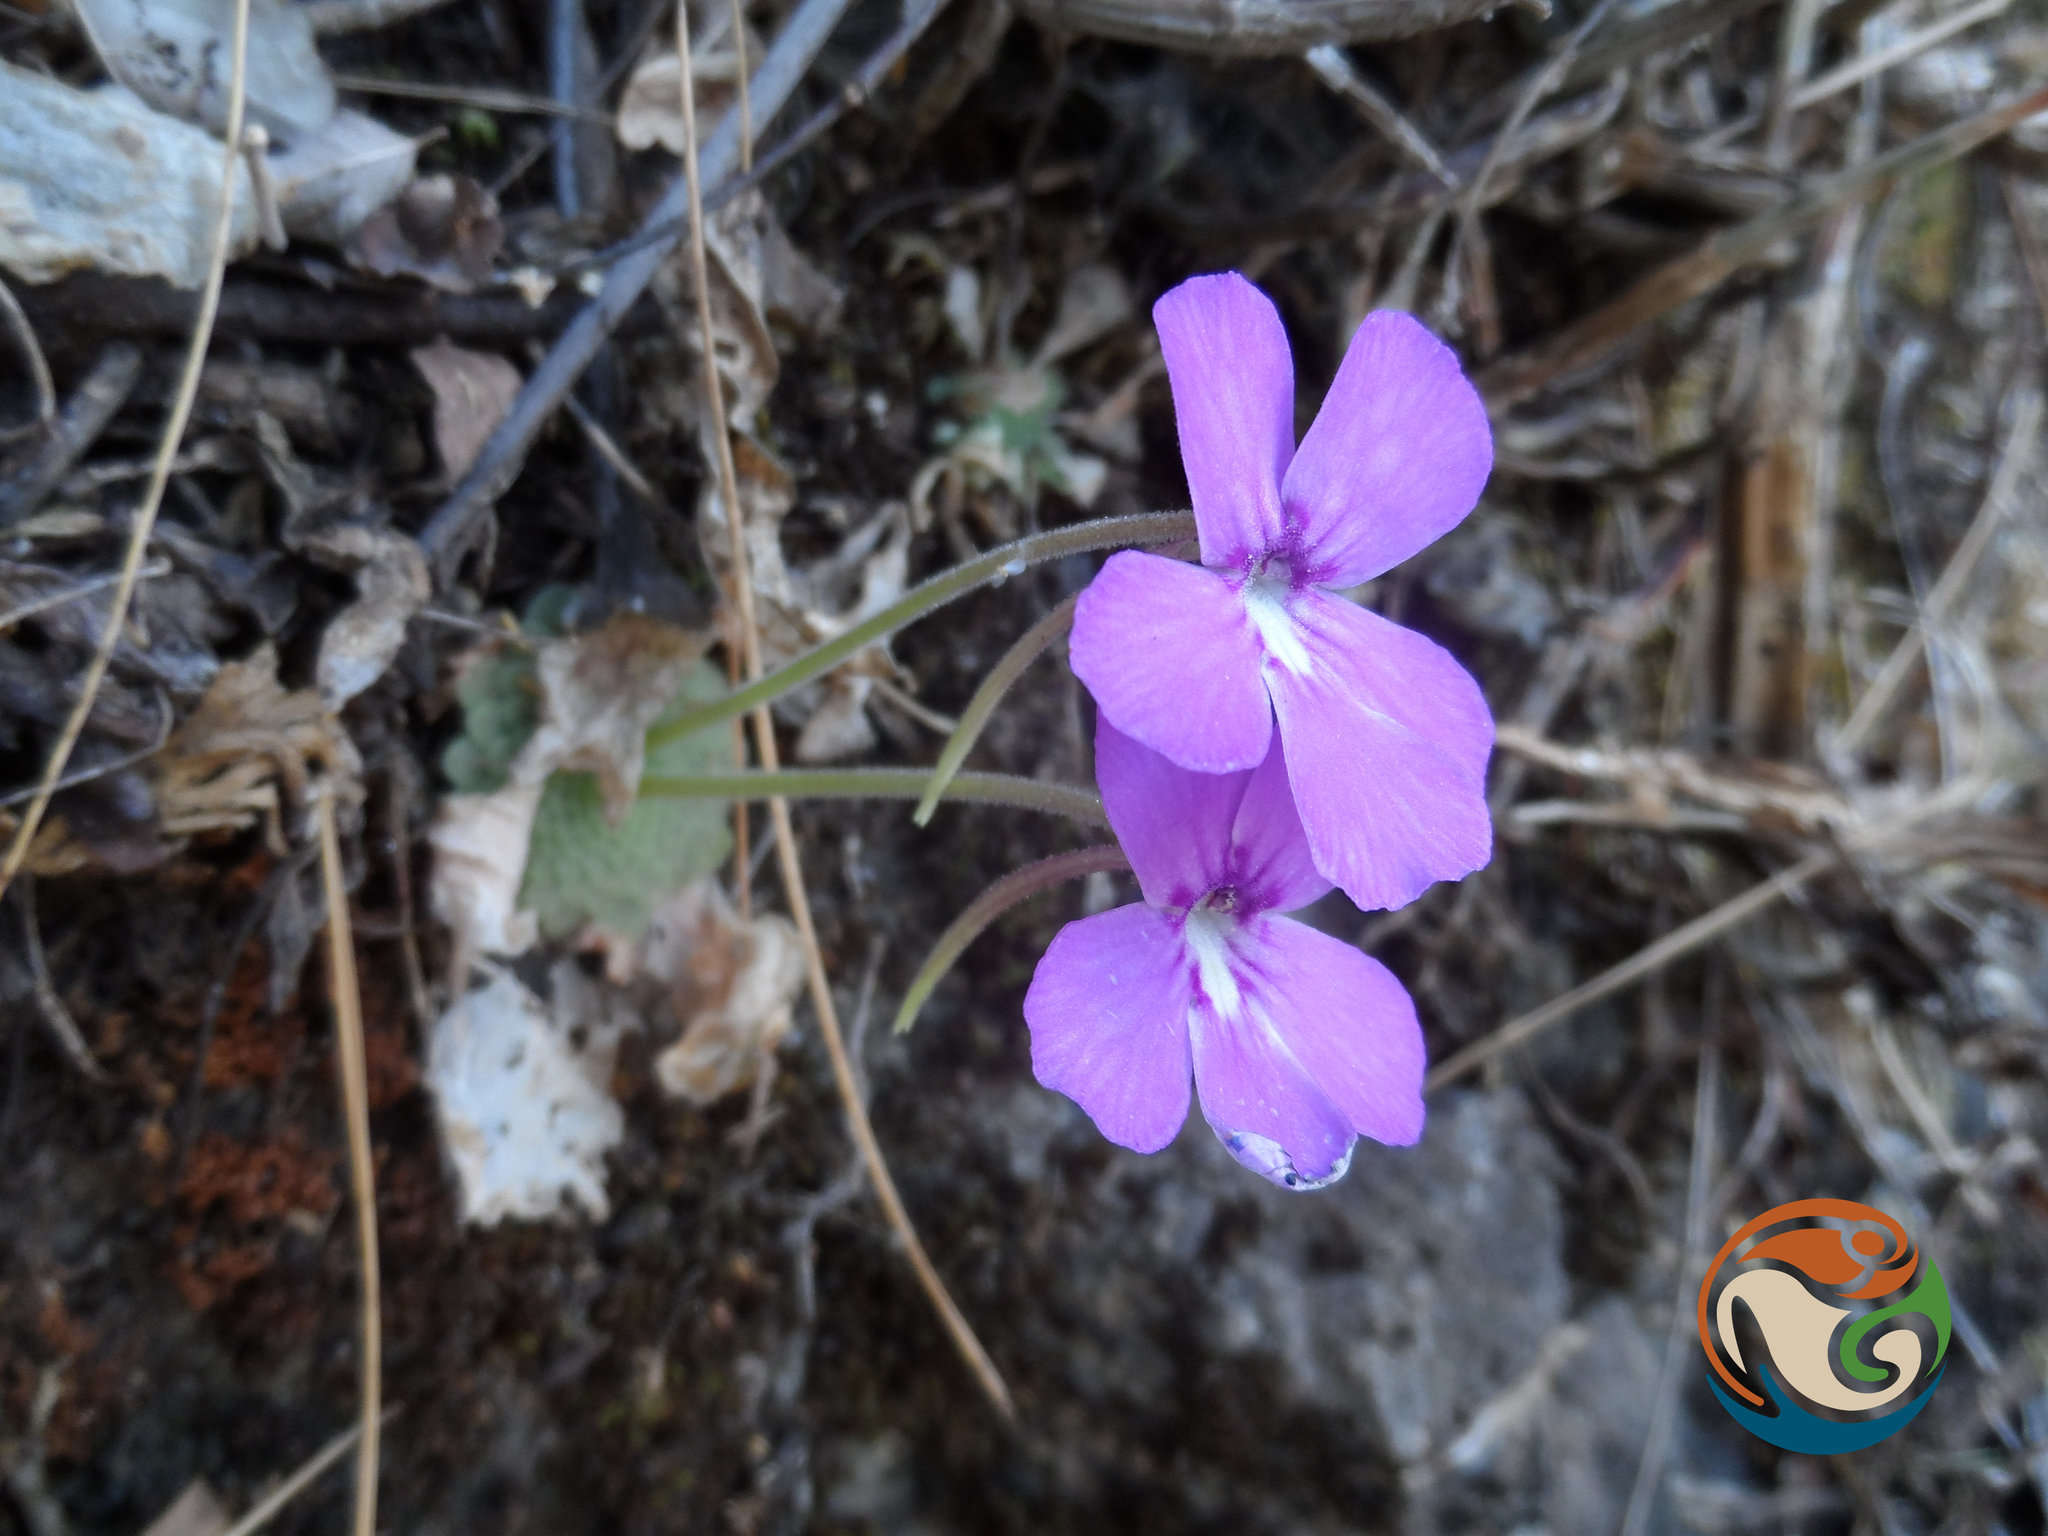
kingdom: Plantae
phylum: Tracheophyta
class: Magnoliopsida
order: Lamiales
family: Lentibulariaceae
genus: Pinguicula
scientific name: Pinguicula moranensis
